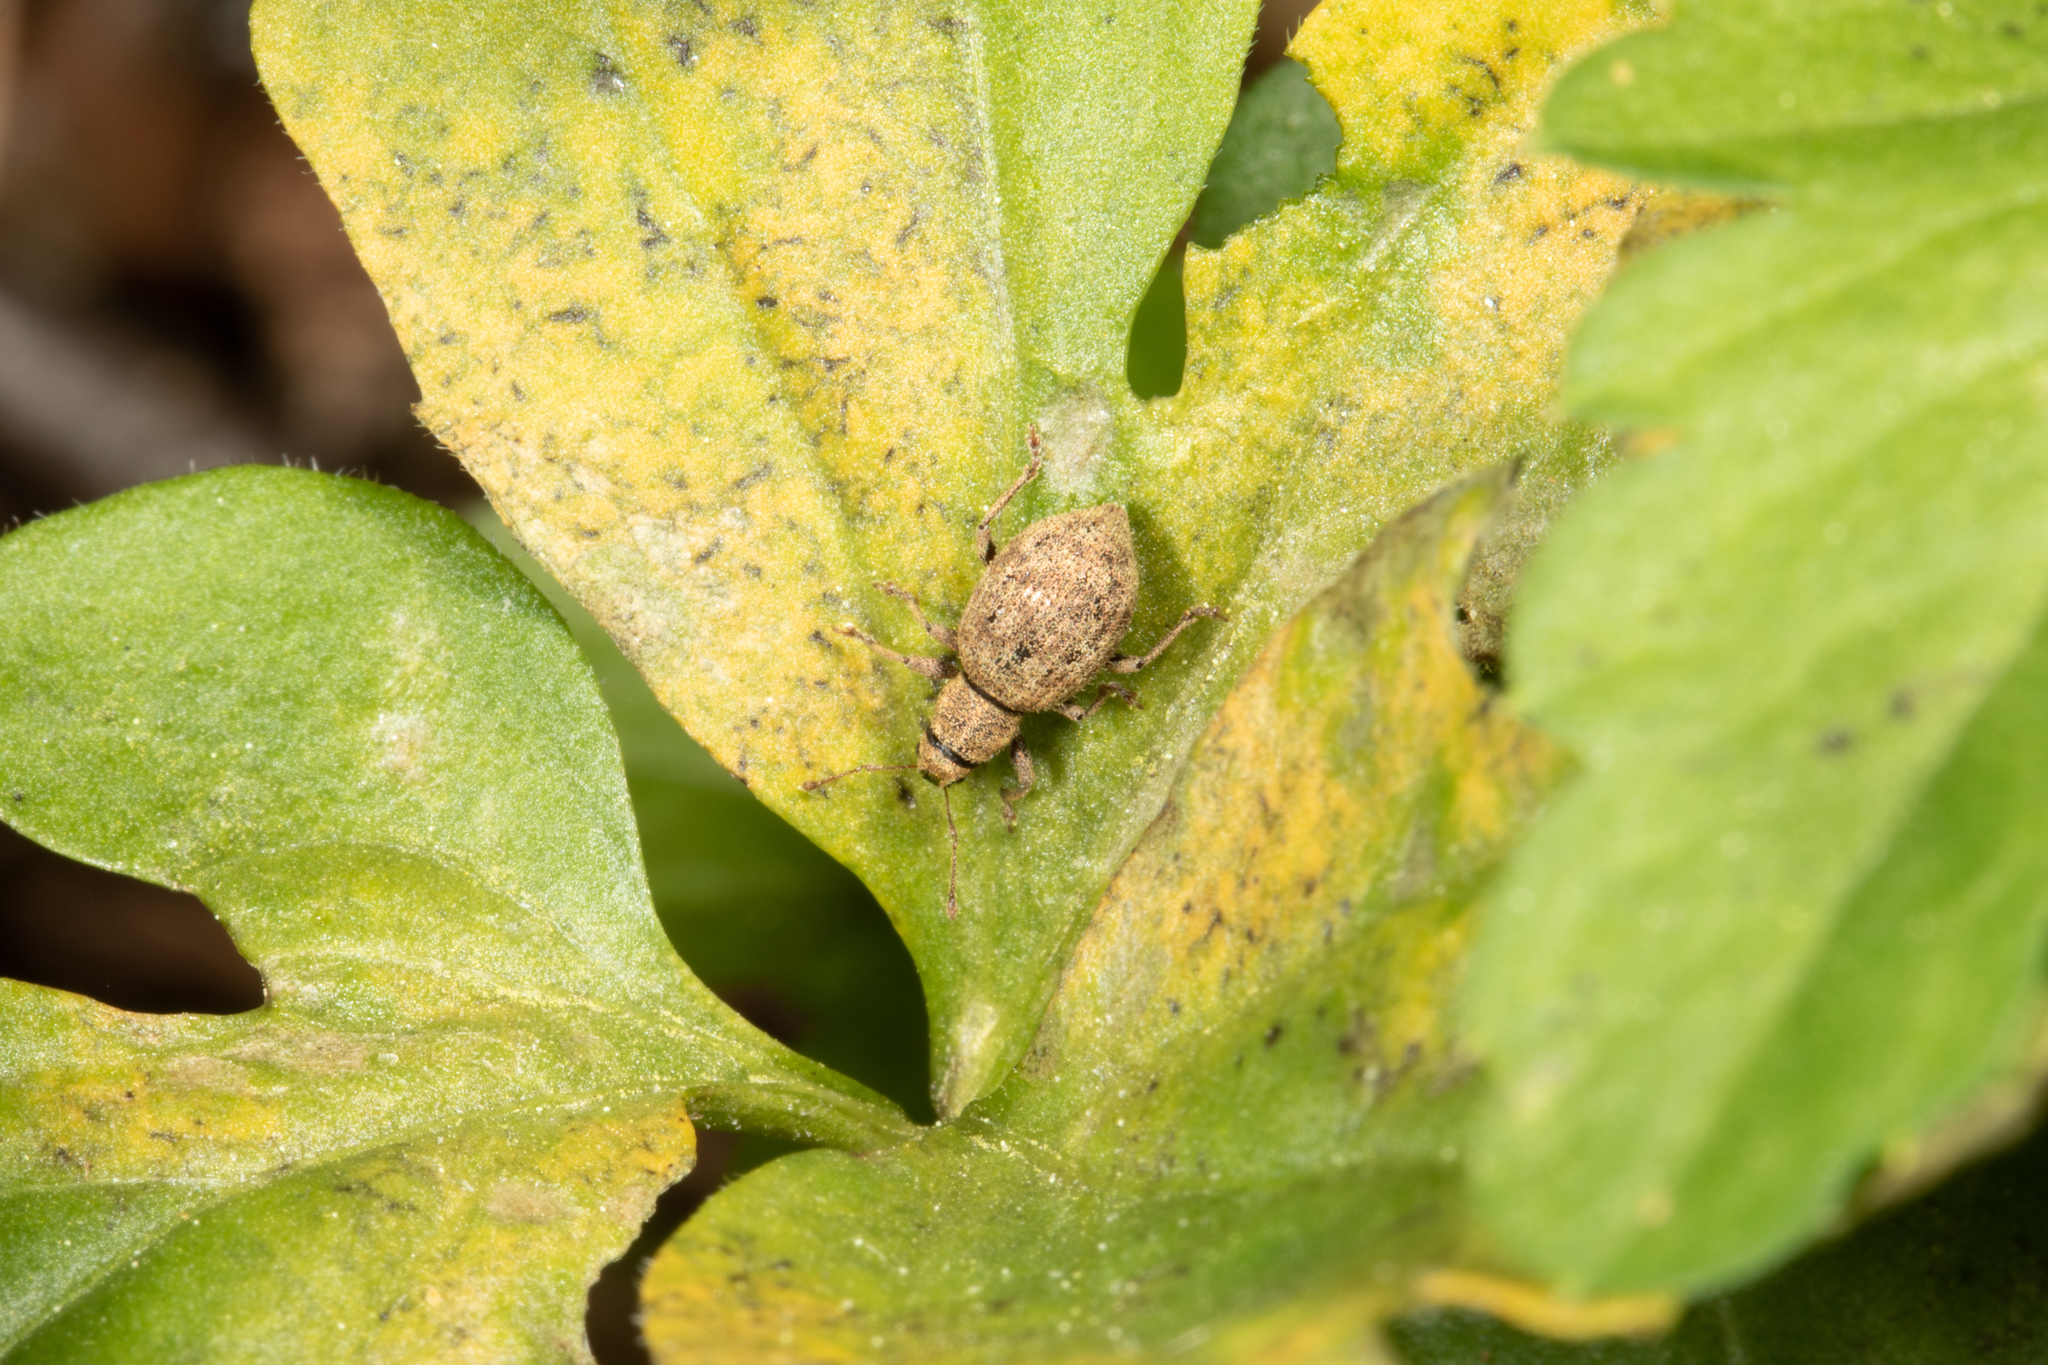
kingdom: Animalia
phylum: Arthropoda
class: Insecta
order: Coleoptera
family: Curculionidae
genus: Sciaphilus
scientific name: Sciaphilus asperatus
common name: Weevil
